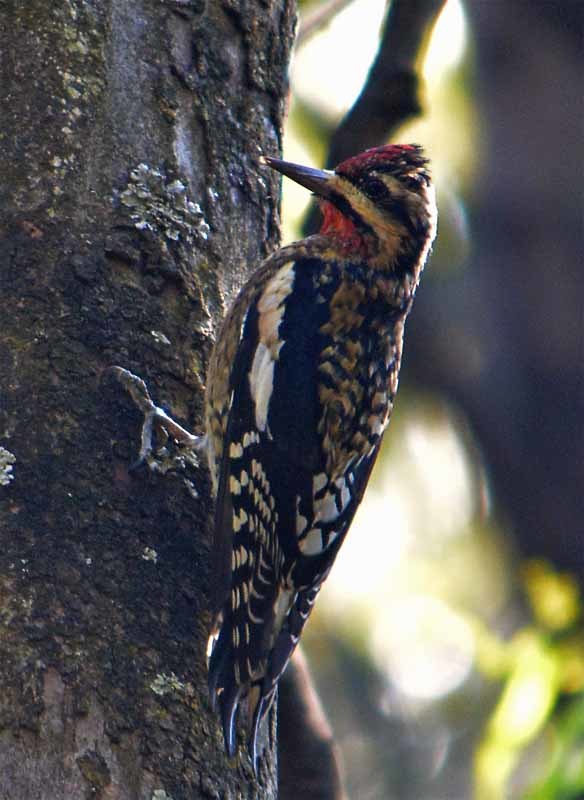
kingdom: Animalia
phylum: Chordata
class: Aves
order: Piciformes
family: Picidae
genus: Sphyrapicus
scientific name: Sphyrapicus varius
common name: Yellow-bellied sapsucker
